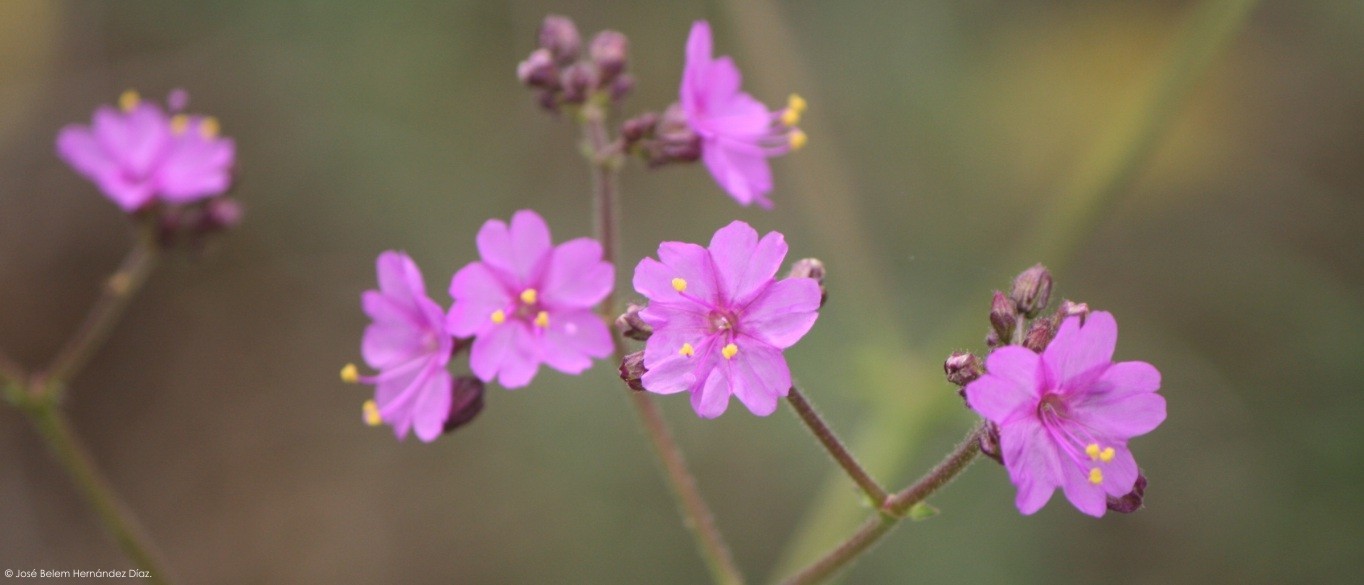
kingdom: Plantae
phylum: Tracheophyta
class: Magnoliopsida
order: Caryophyllales
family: Nyctaginaceae
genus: Mirabilis
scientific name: Mirabilis nyctaginea
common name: Umbrella wort
